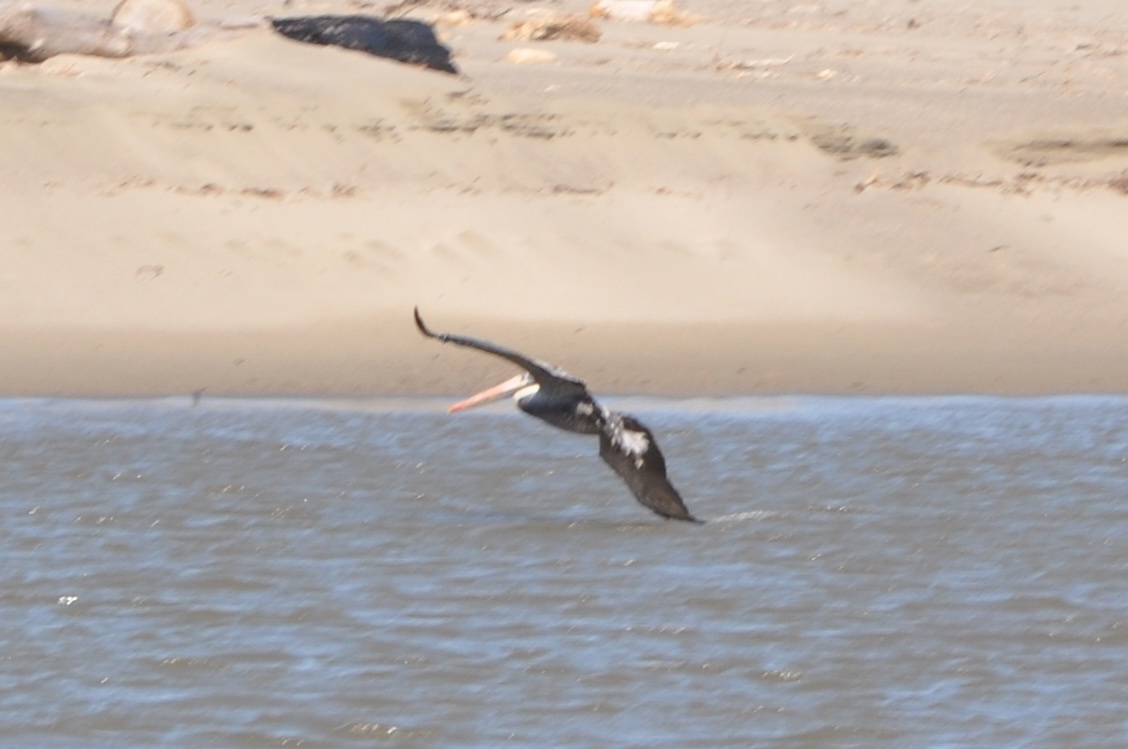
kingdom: Animalia
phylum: Chordata
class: Aves
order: Pelecaniformes
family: Pelecanidae
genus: Pelecanus
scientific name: Pelecanus occidentalis
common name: Brown pelican
